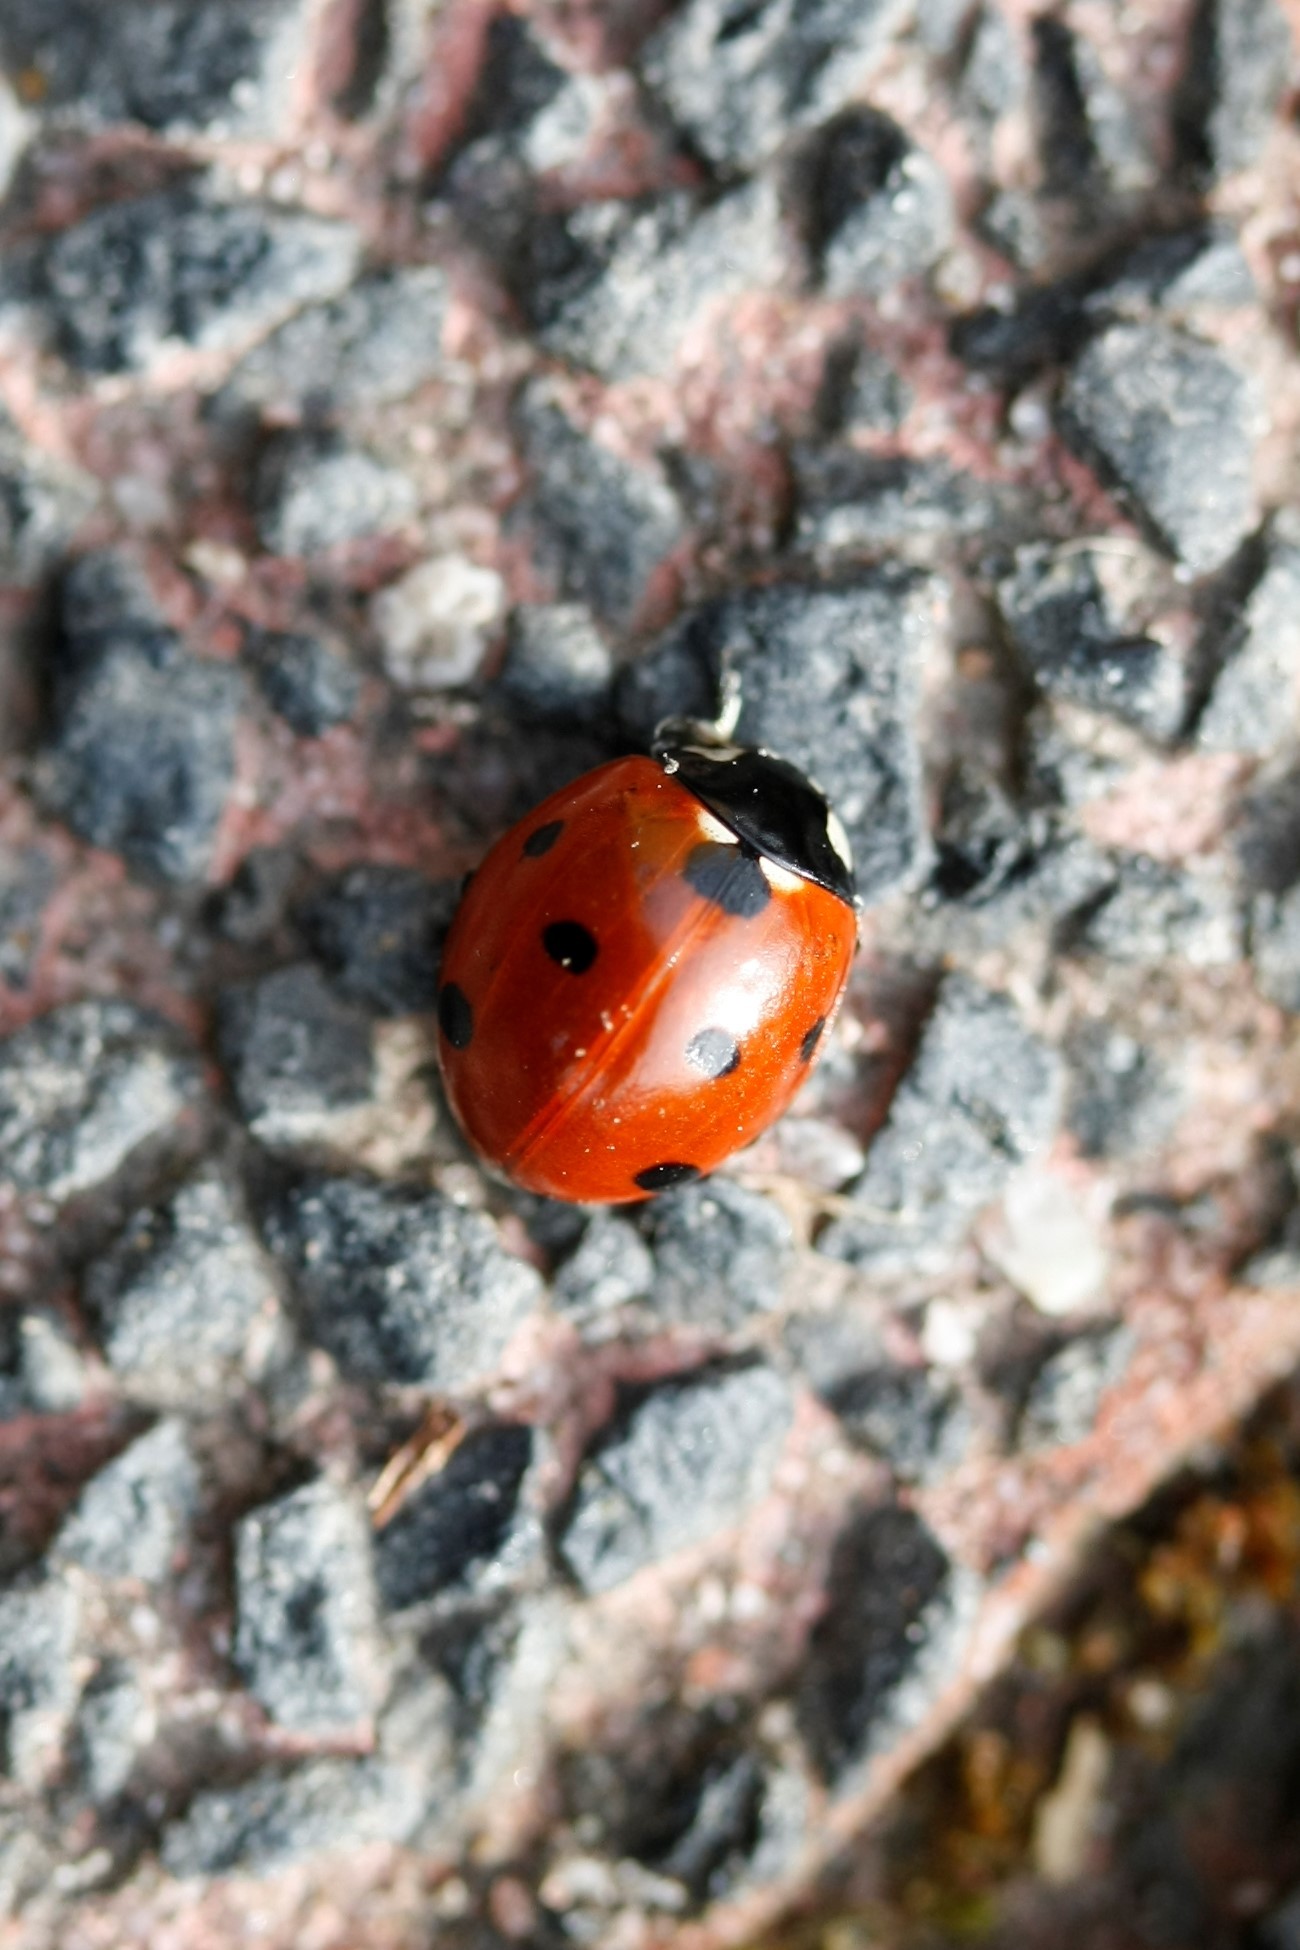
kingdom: Animalia
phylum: Arthropoda
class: Insecta
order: Coleoptera
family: Coccinellidae
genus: Coccinella
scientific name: Coccinella septempunctata
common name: Sevenspotted lady beetle
